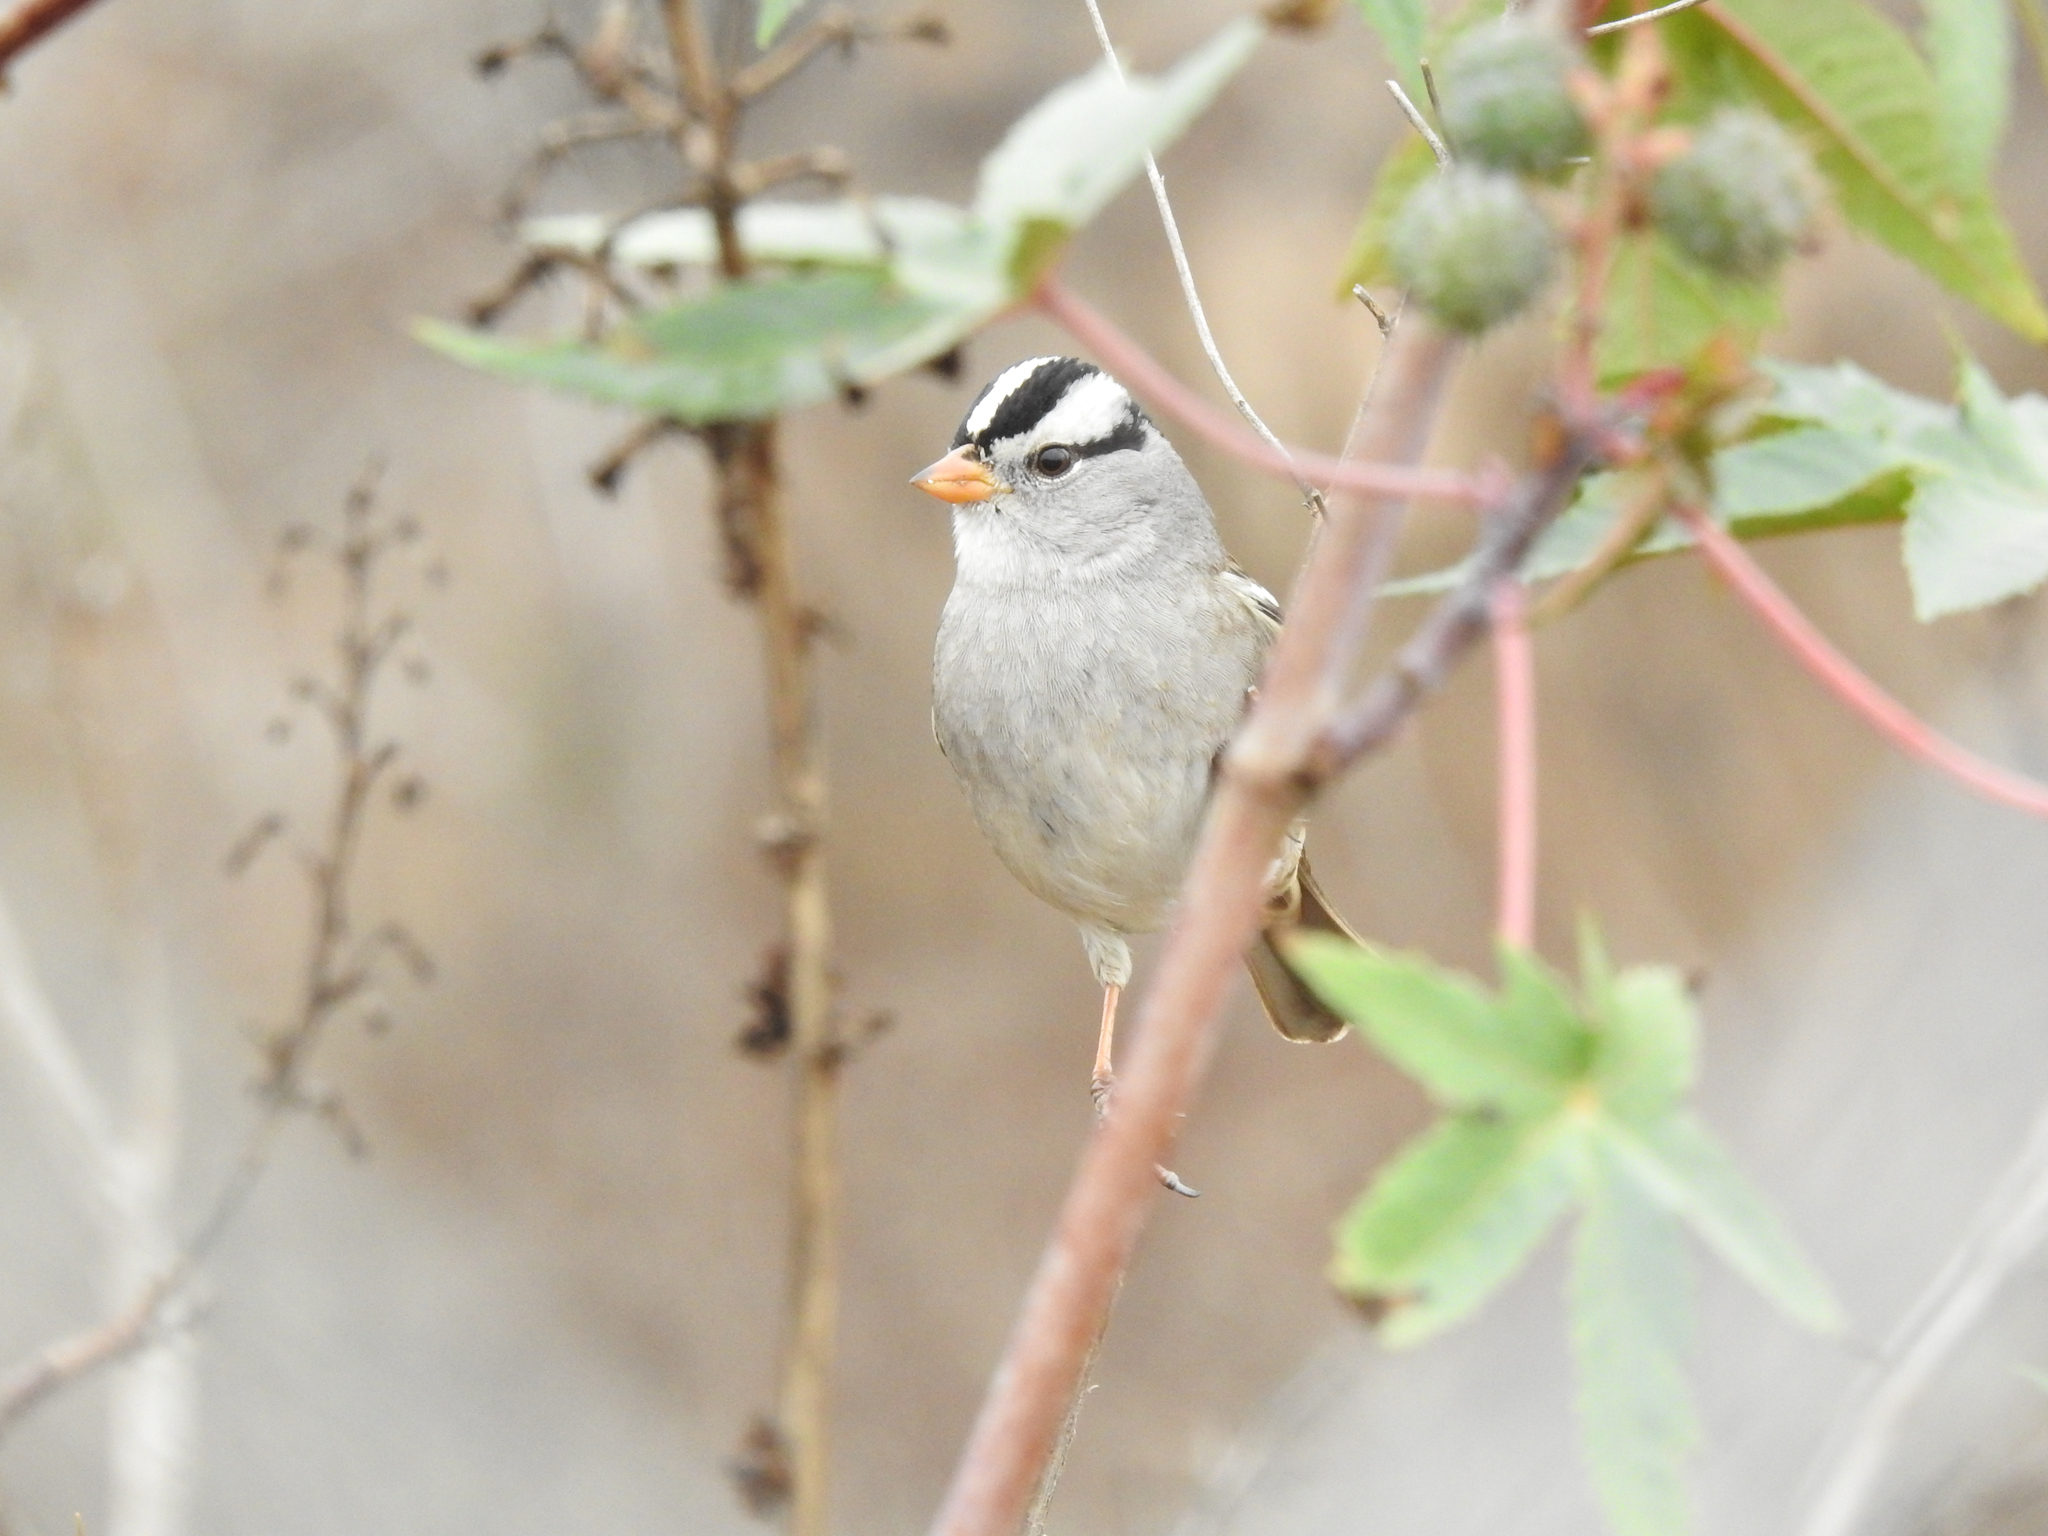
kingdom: Animalia
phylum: Chordata
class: Aves
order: Passeriformes
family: Passerellidae
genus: Zonotrichia
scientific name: Zonotrichia leucophrys
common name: White-crowned sparrow
